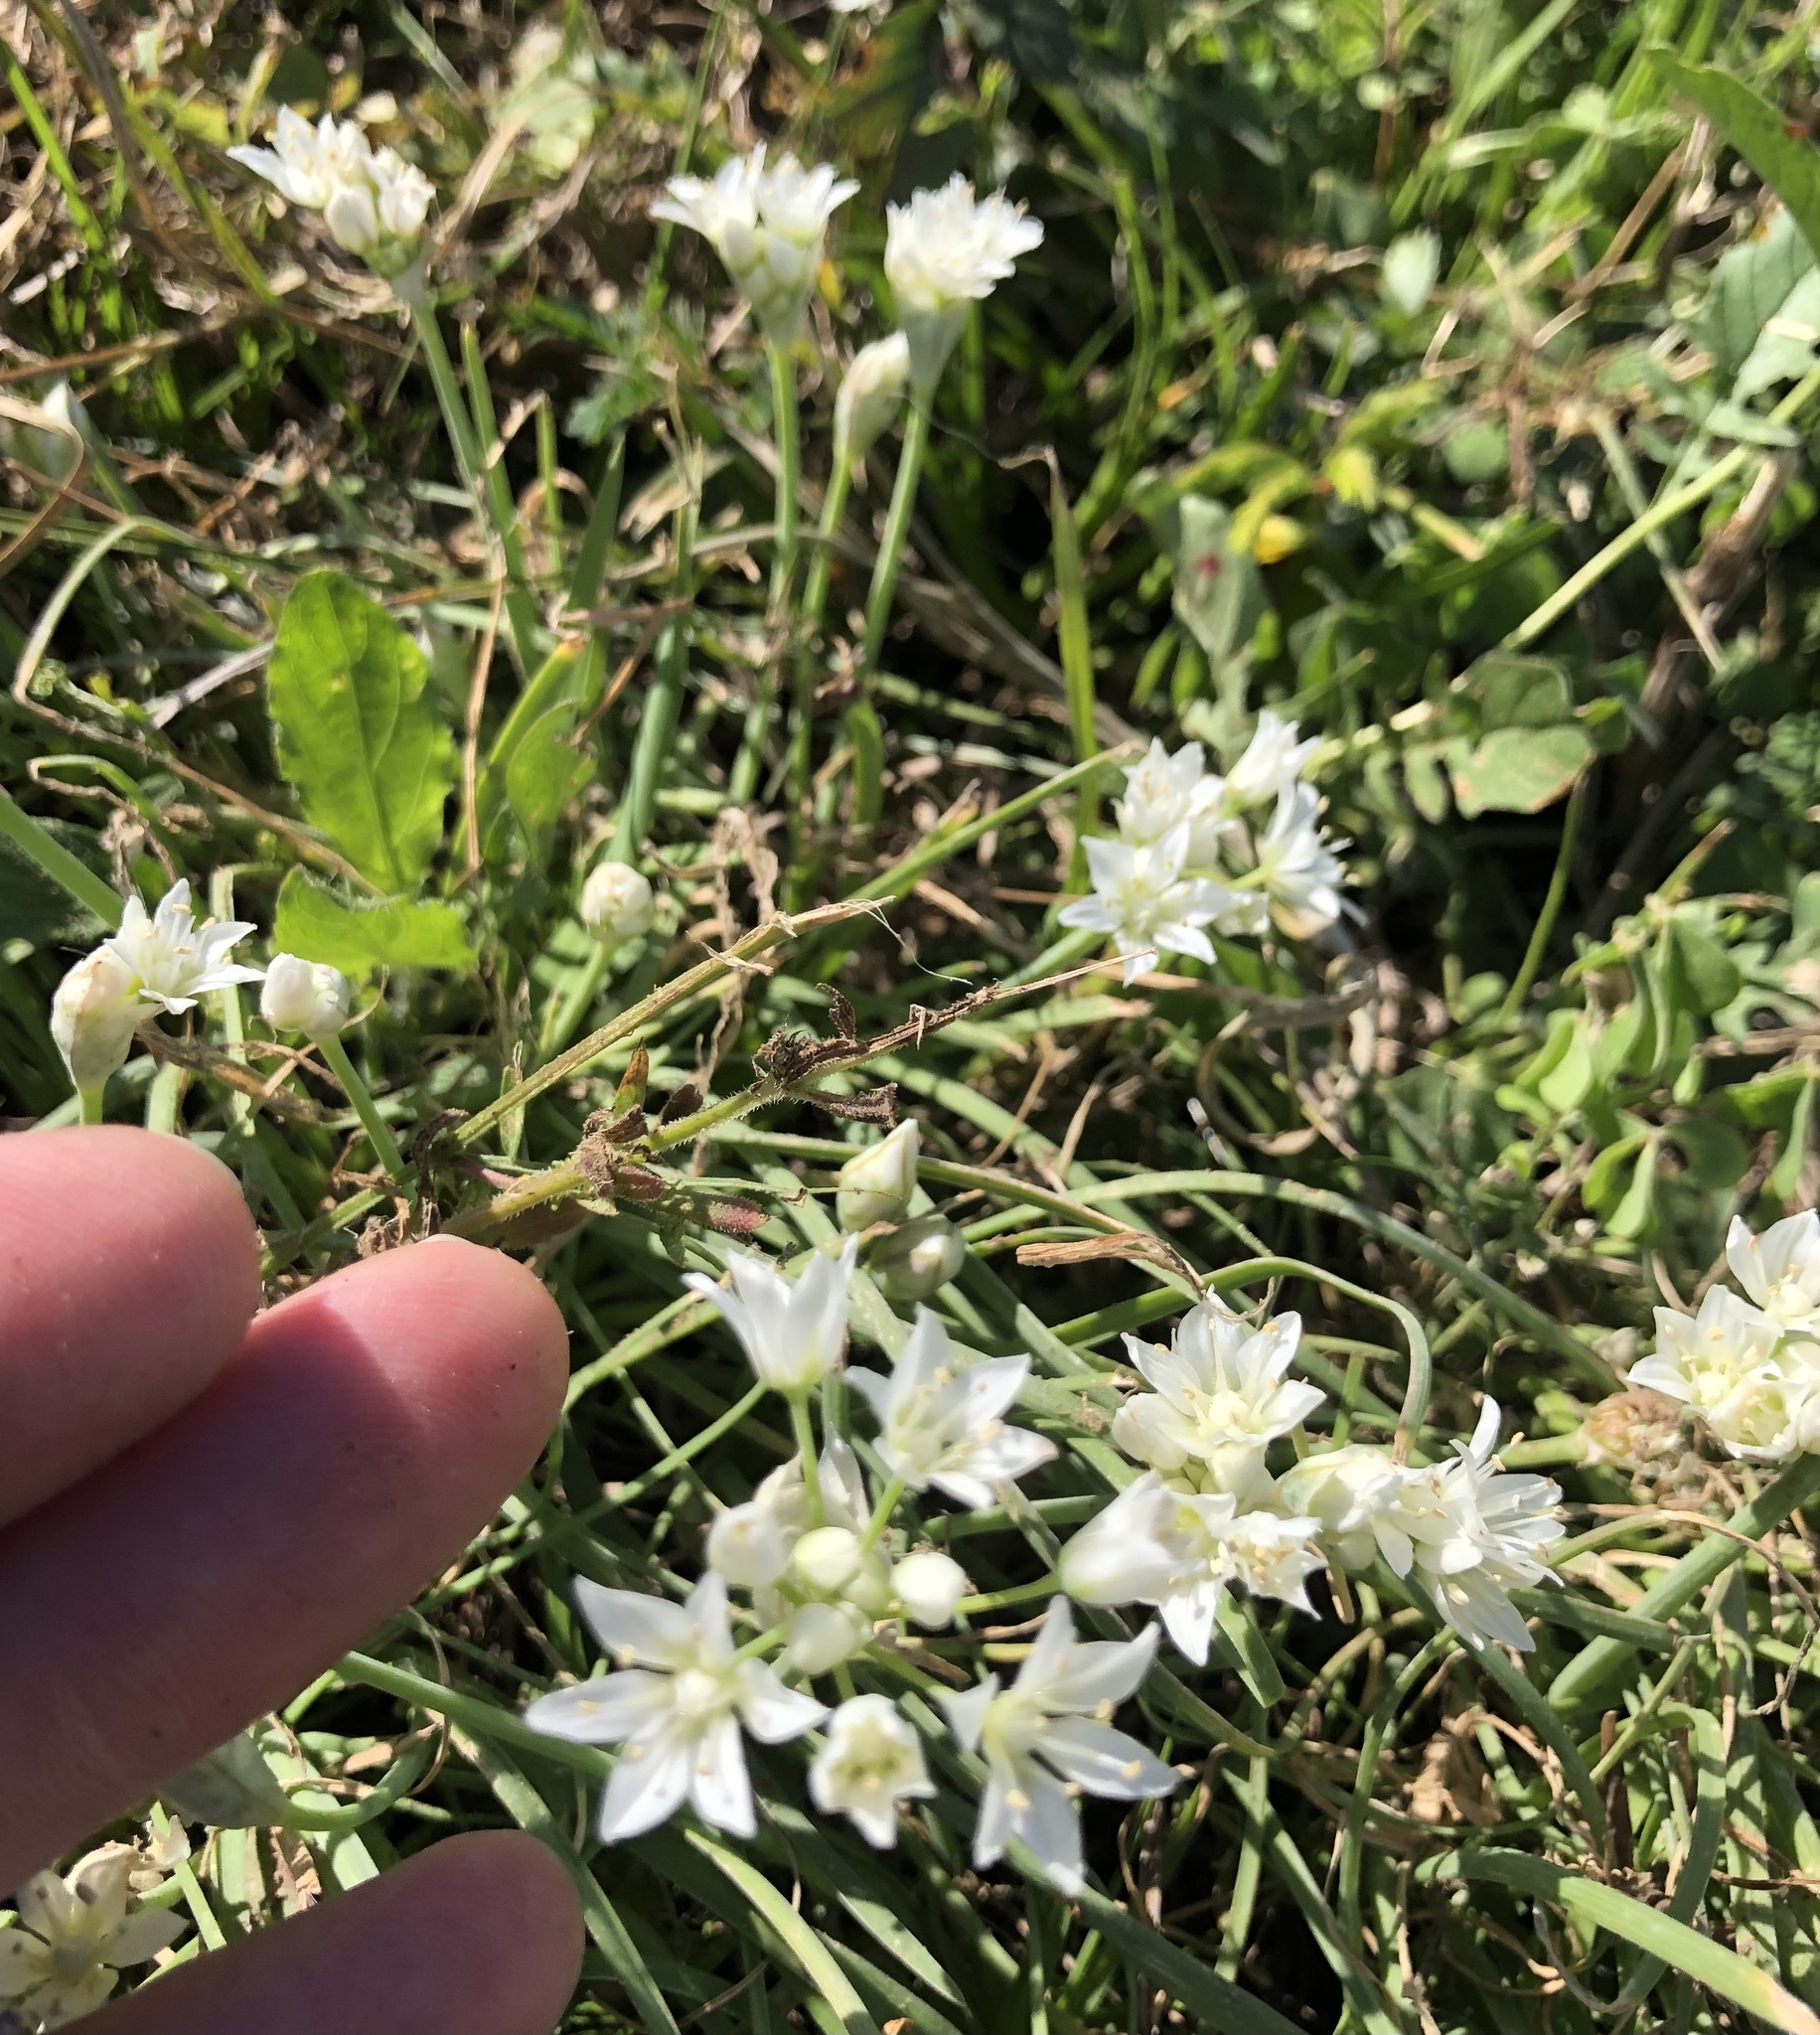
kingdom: Plantae
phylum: Tracheophyta
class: Liliopsida
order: Asparagales
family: Amaryllidaceae
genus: Allium
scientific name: Allium drummondii
